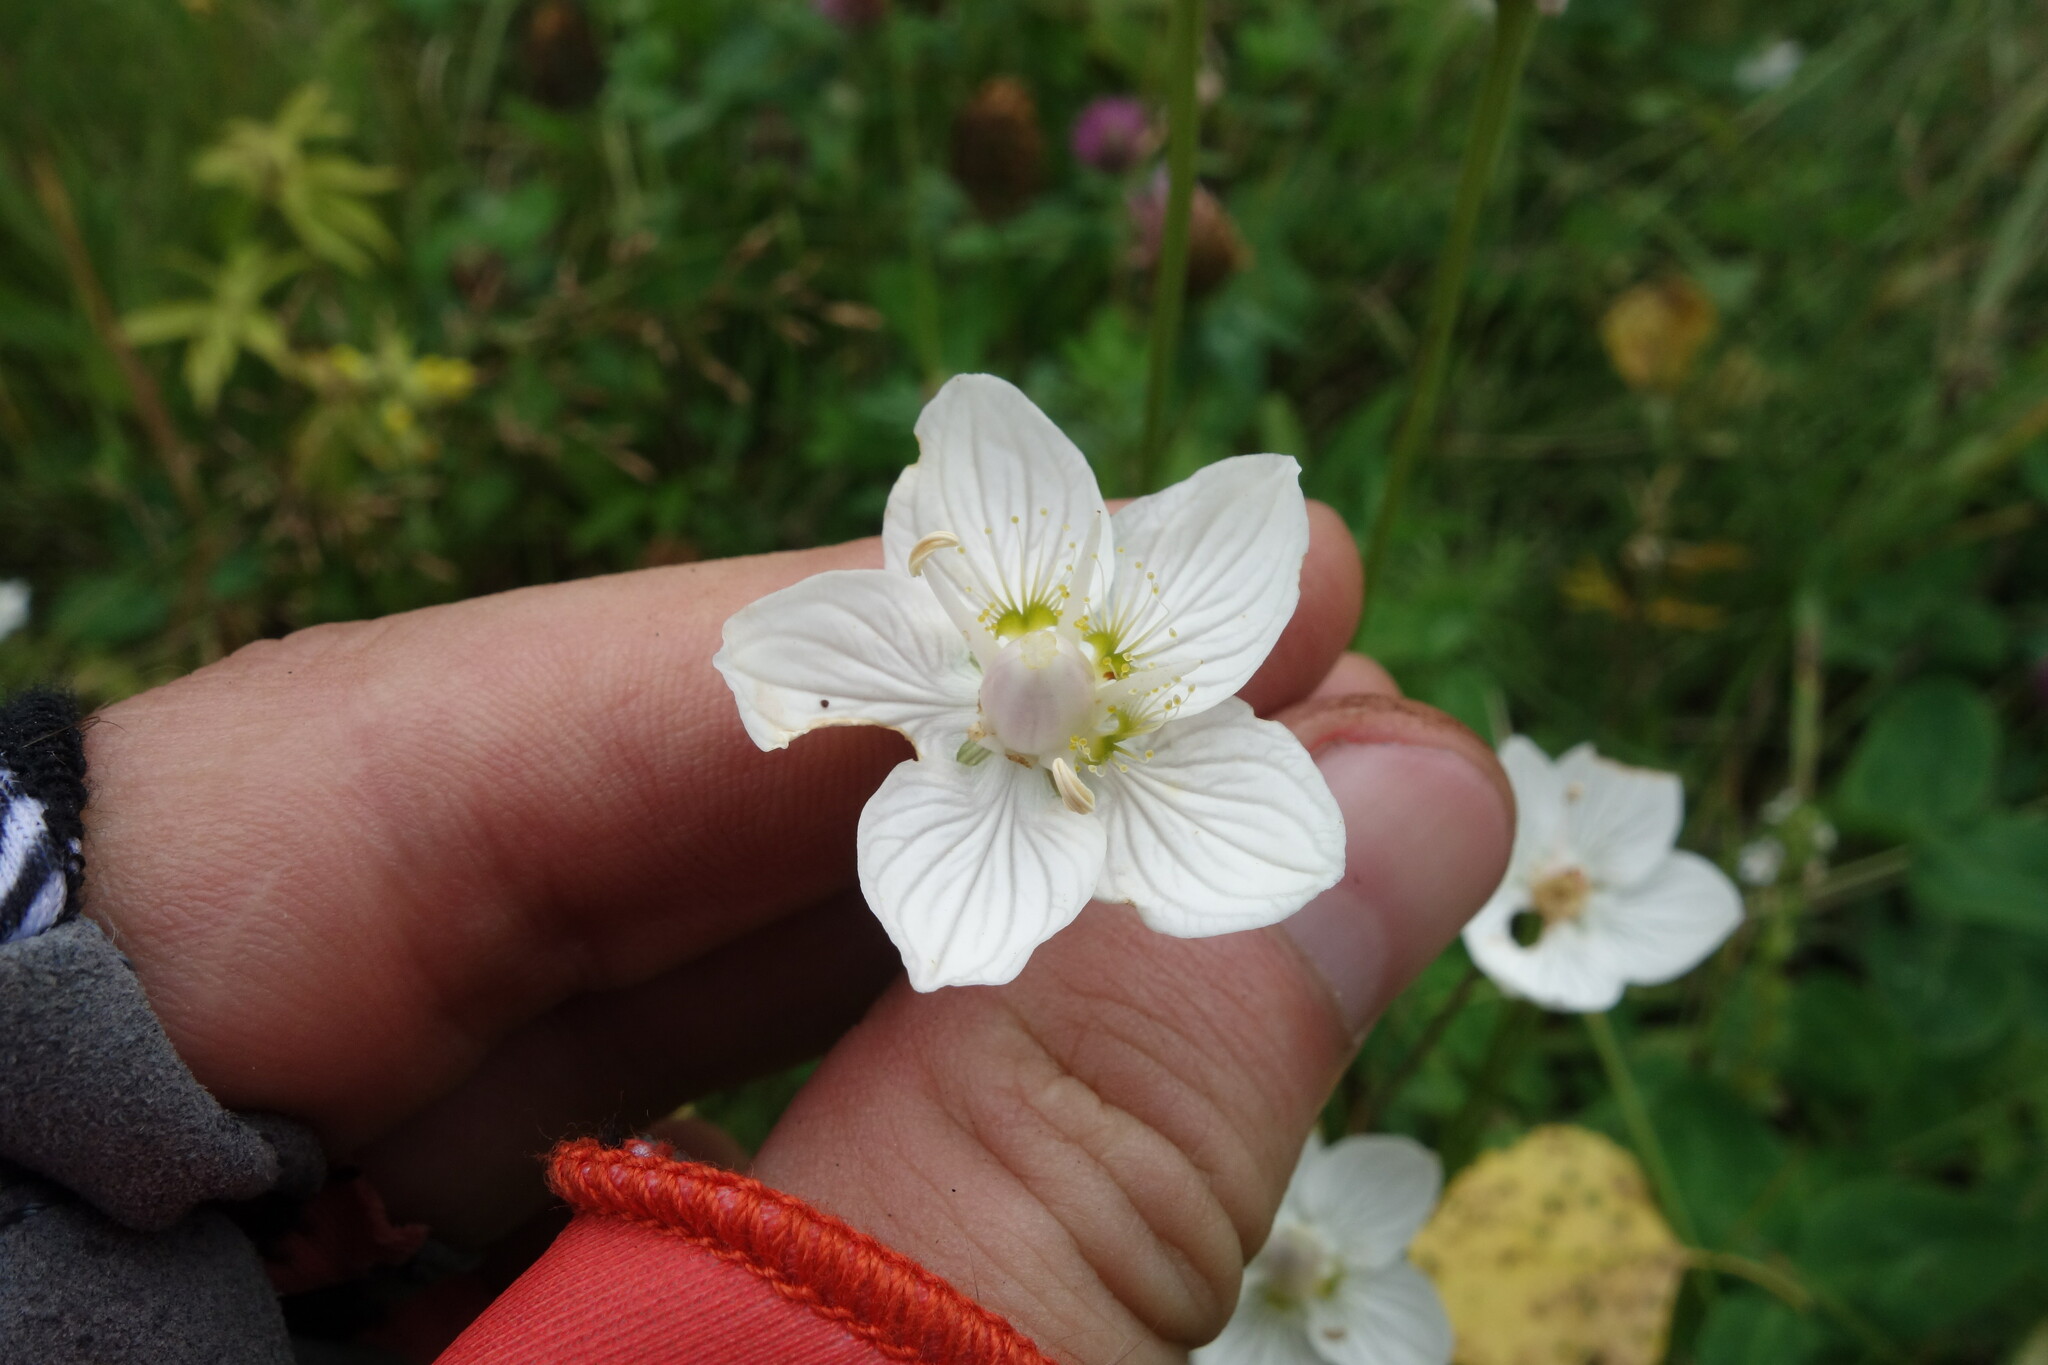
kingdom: Plantae
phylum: Tracheophyta
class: Magnoliopsida
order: Celastrales
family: Parnassiaceae
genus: Parnassia
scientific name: Parnassia palustris
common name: Grass-of-parnassus
